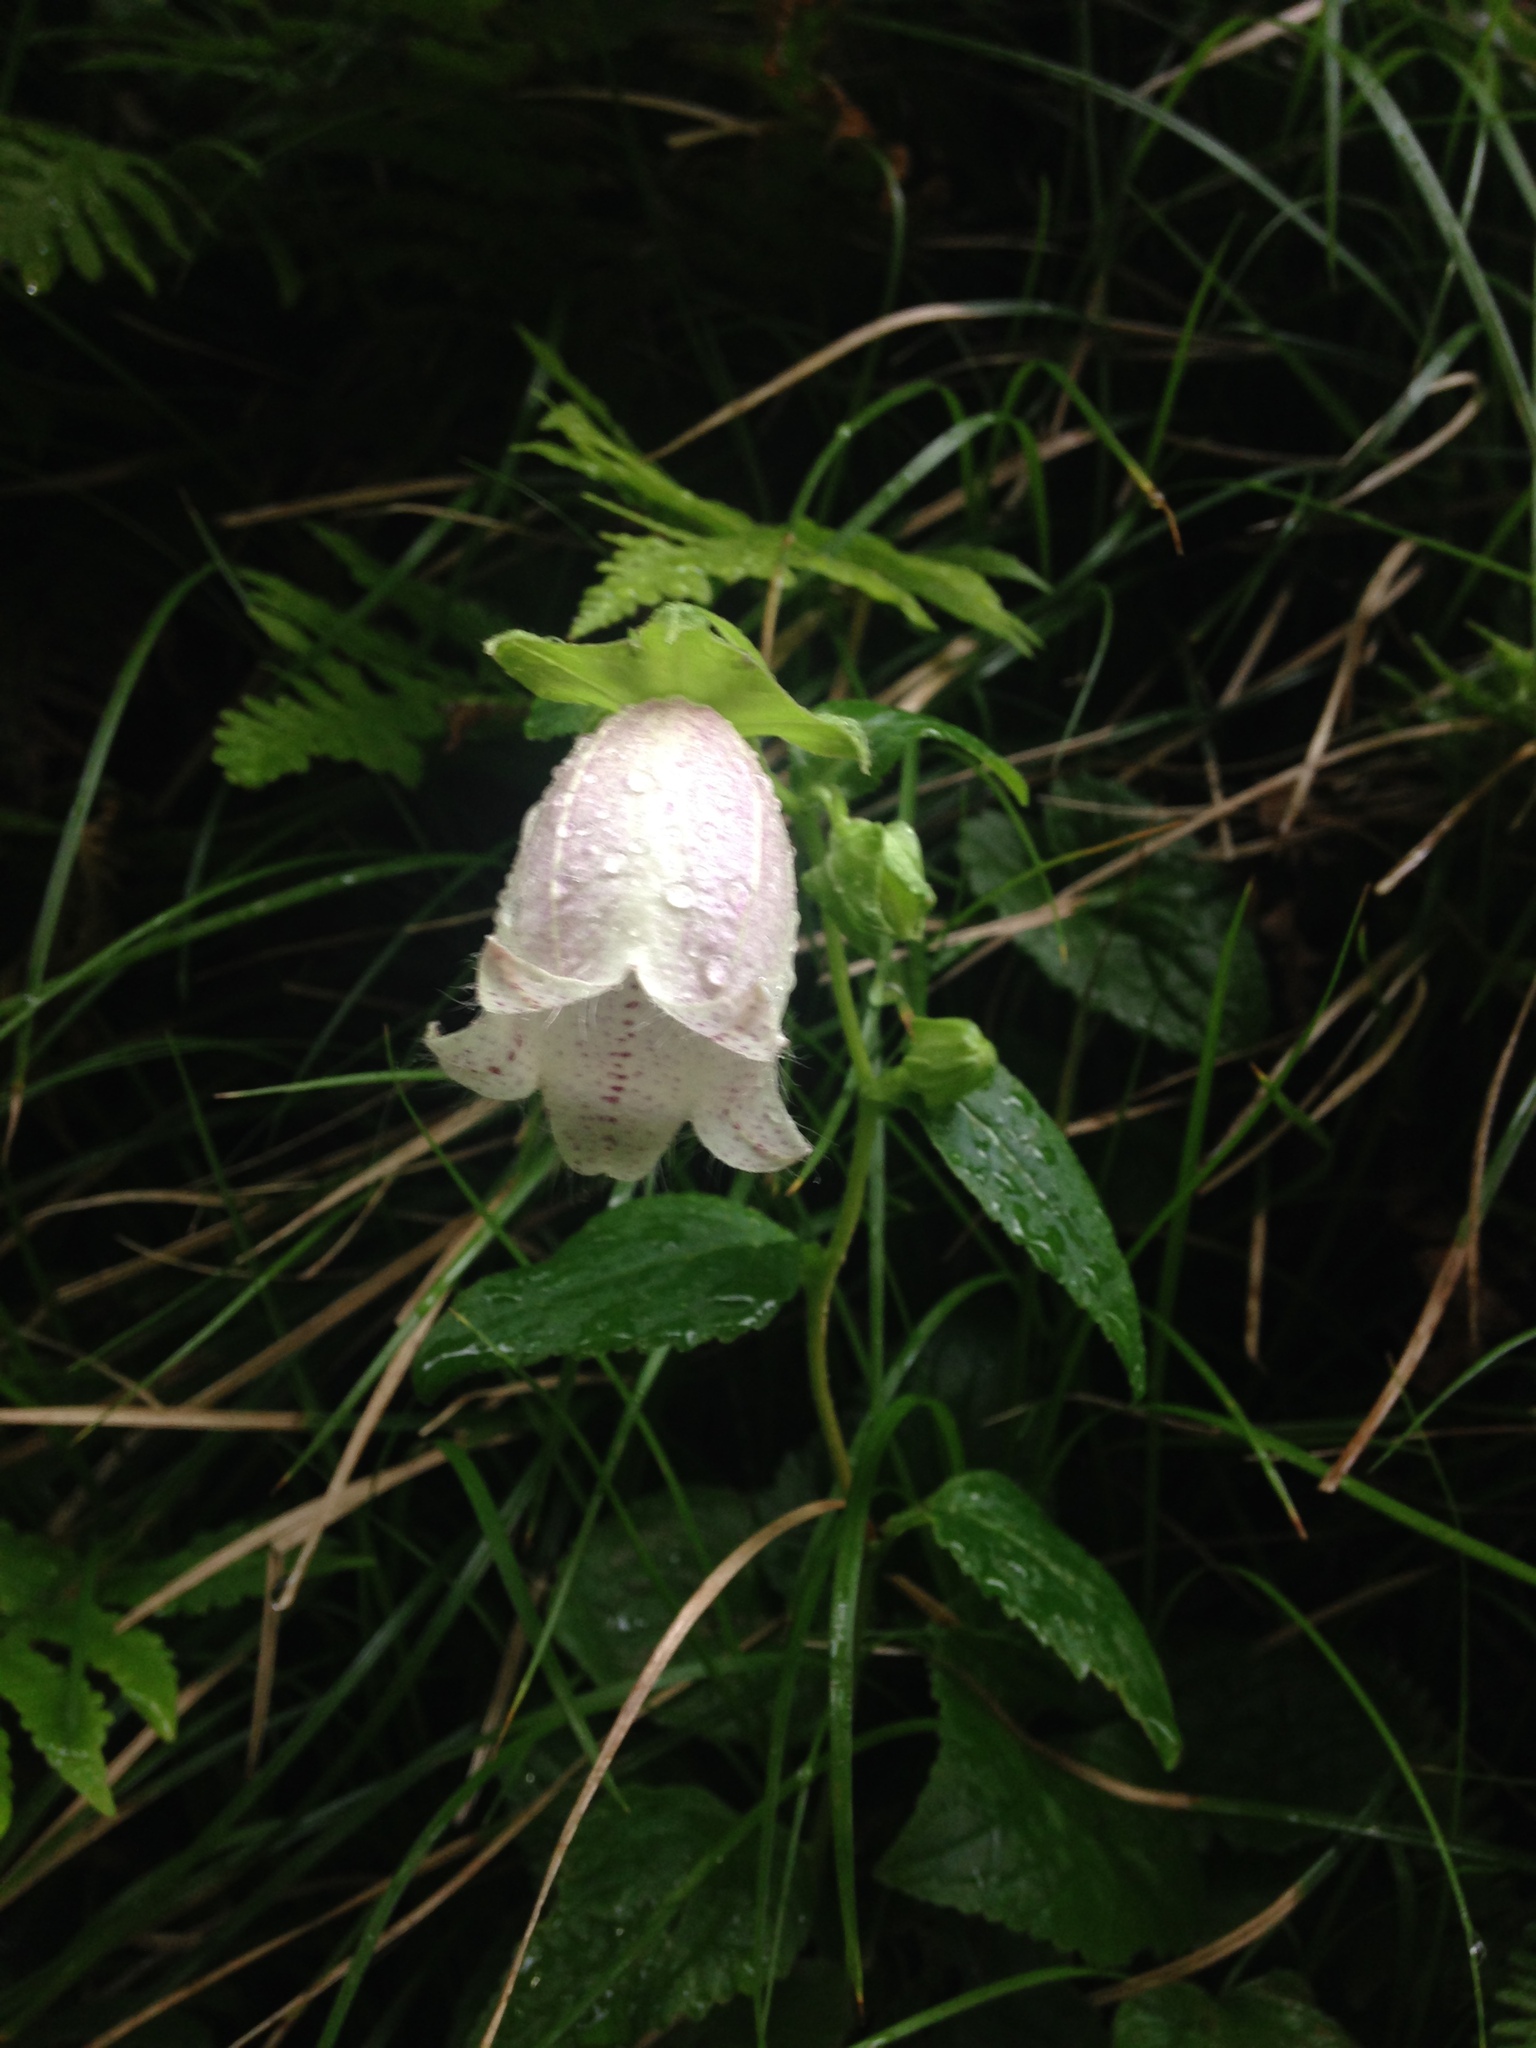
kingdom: Plantae
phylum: Tracheophyta
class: Magnoliopsida
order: Asterales
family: Campanulaceae
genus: Campanula
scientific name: Campanula punctata
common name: Spotted bellflower
